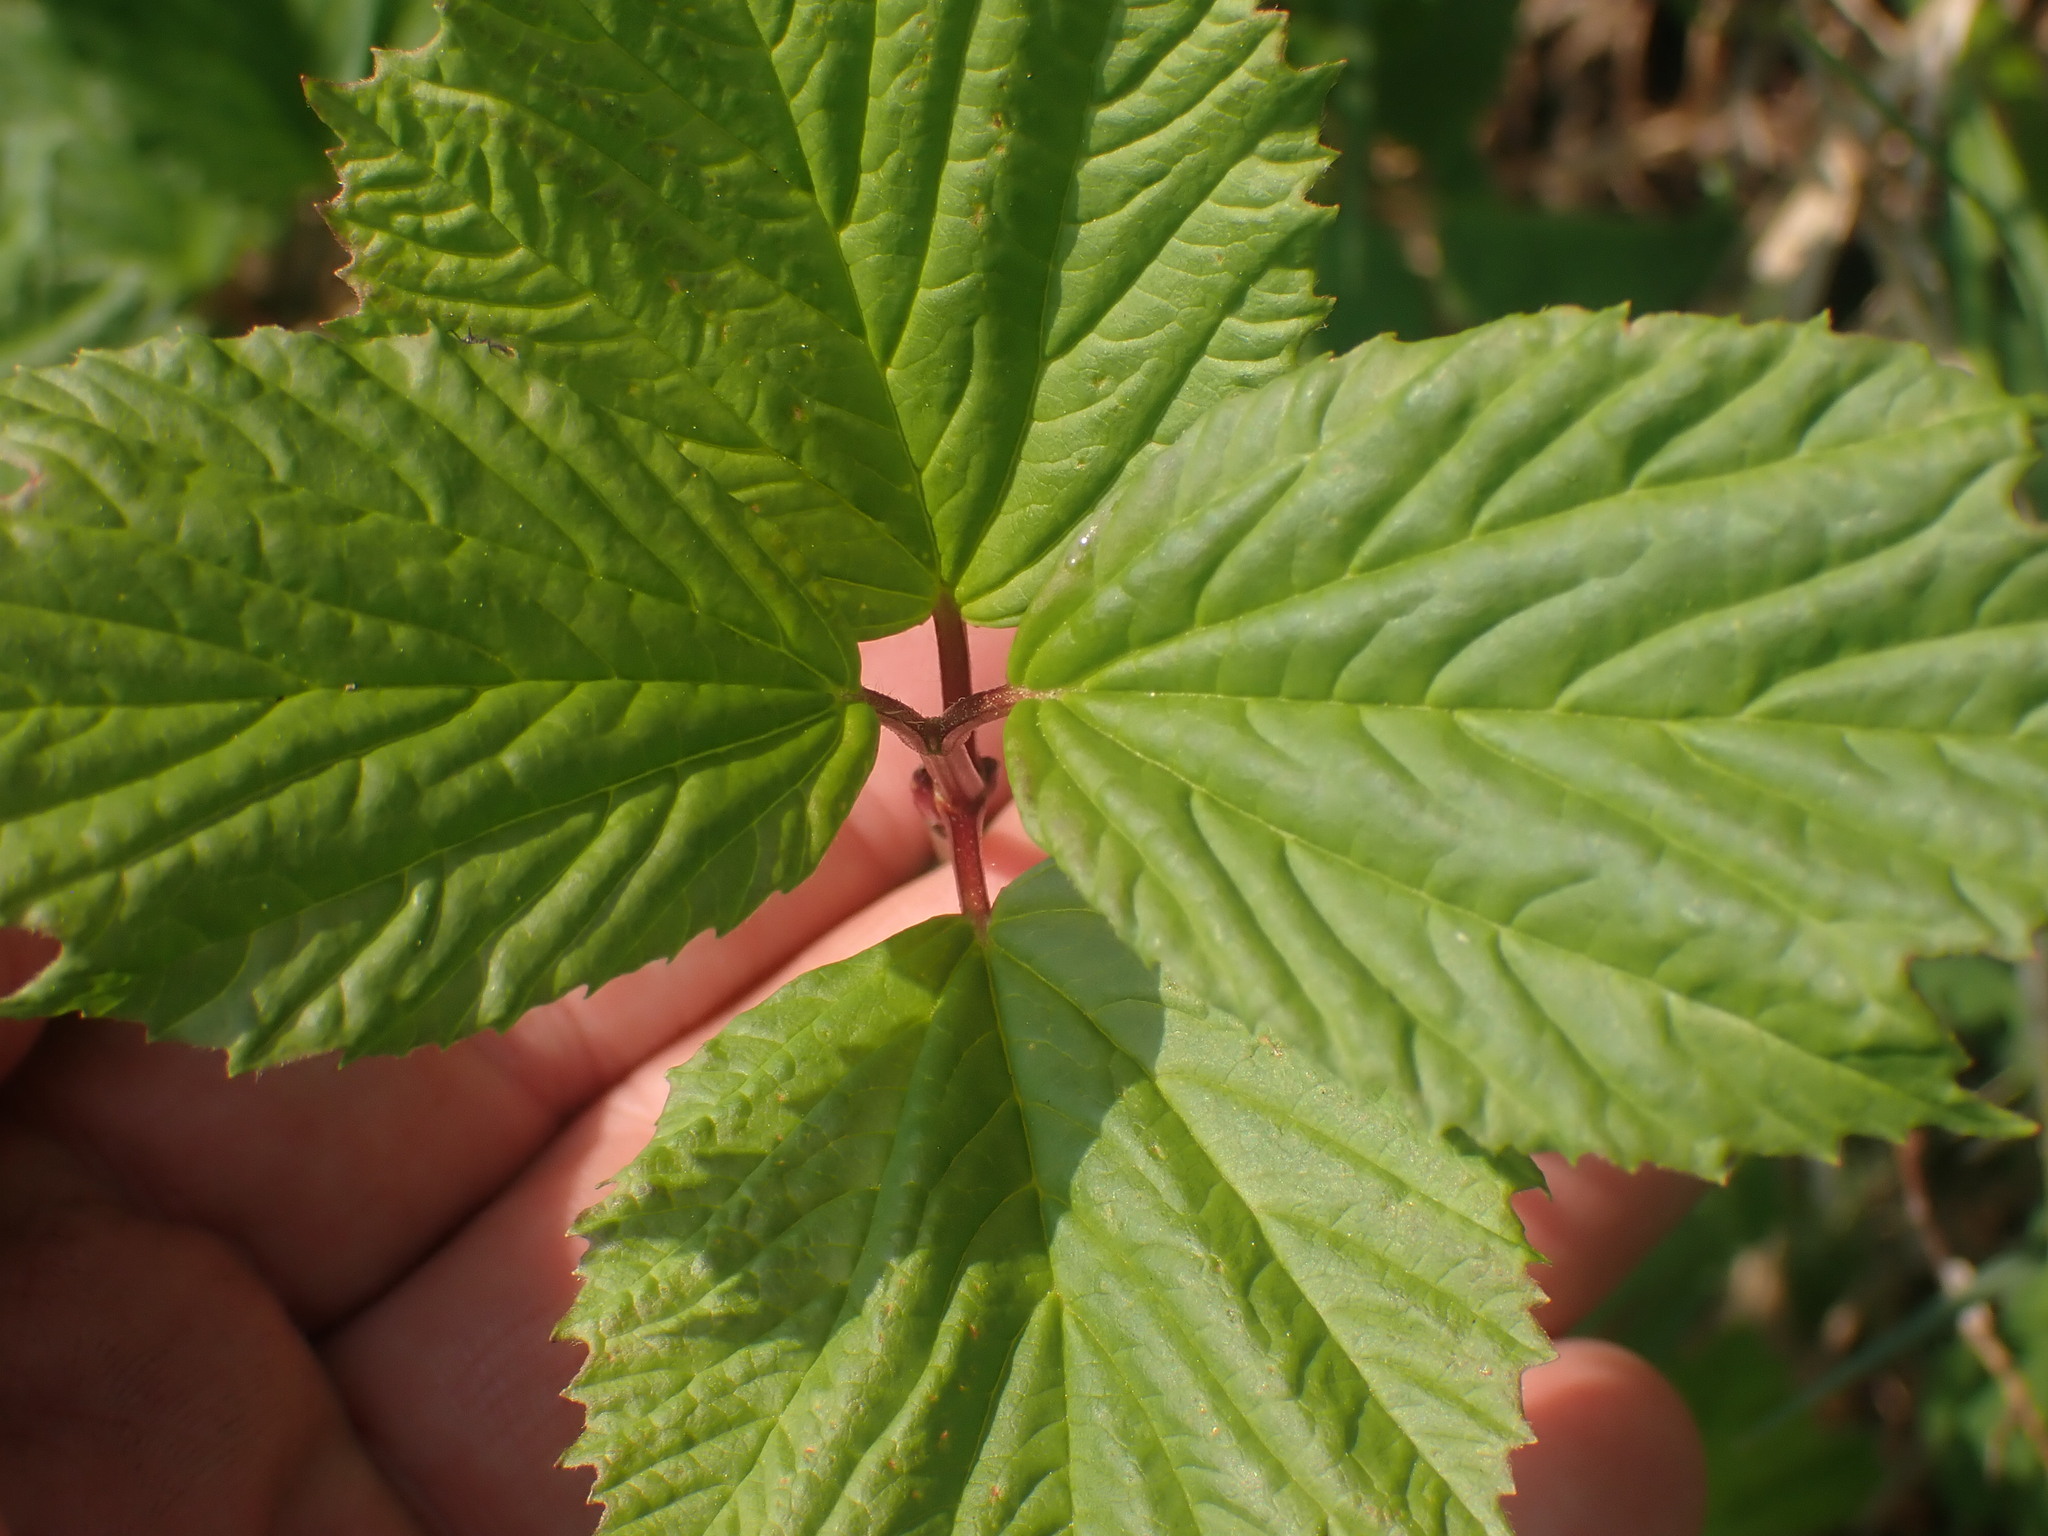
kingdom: Plantae
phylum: Tracheophyta
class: Magnoliopsida
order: Dipsacales
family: Viburnaceae
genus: Viburnum
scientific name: Viburnum edule
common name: Mooseberry
